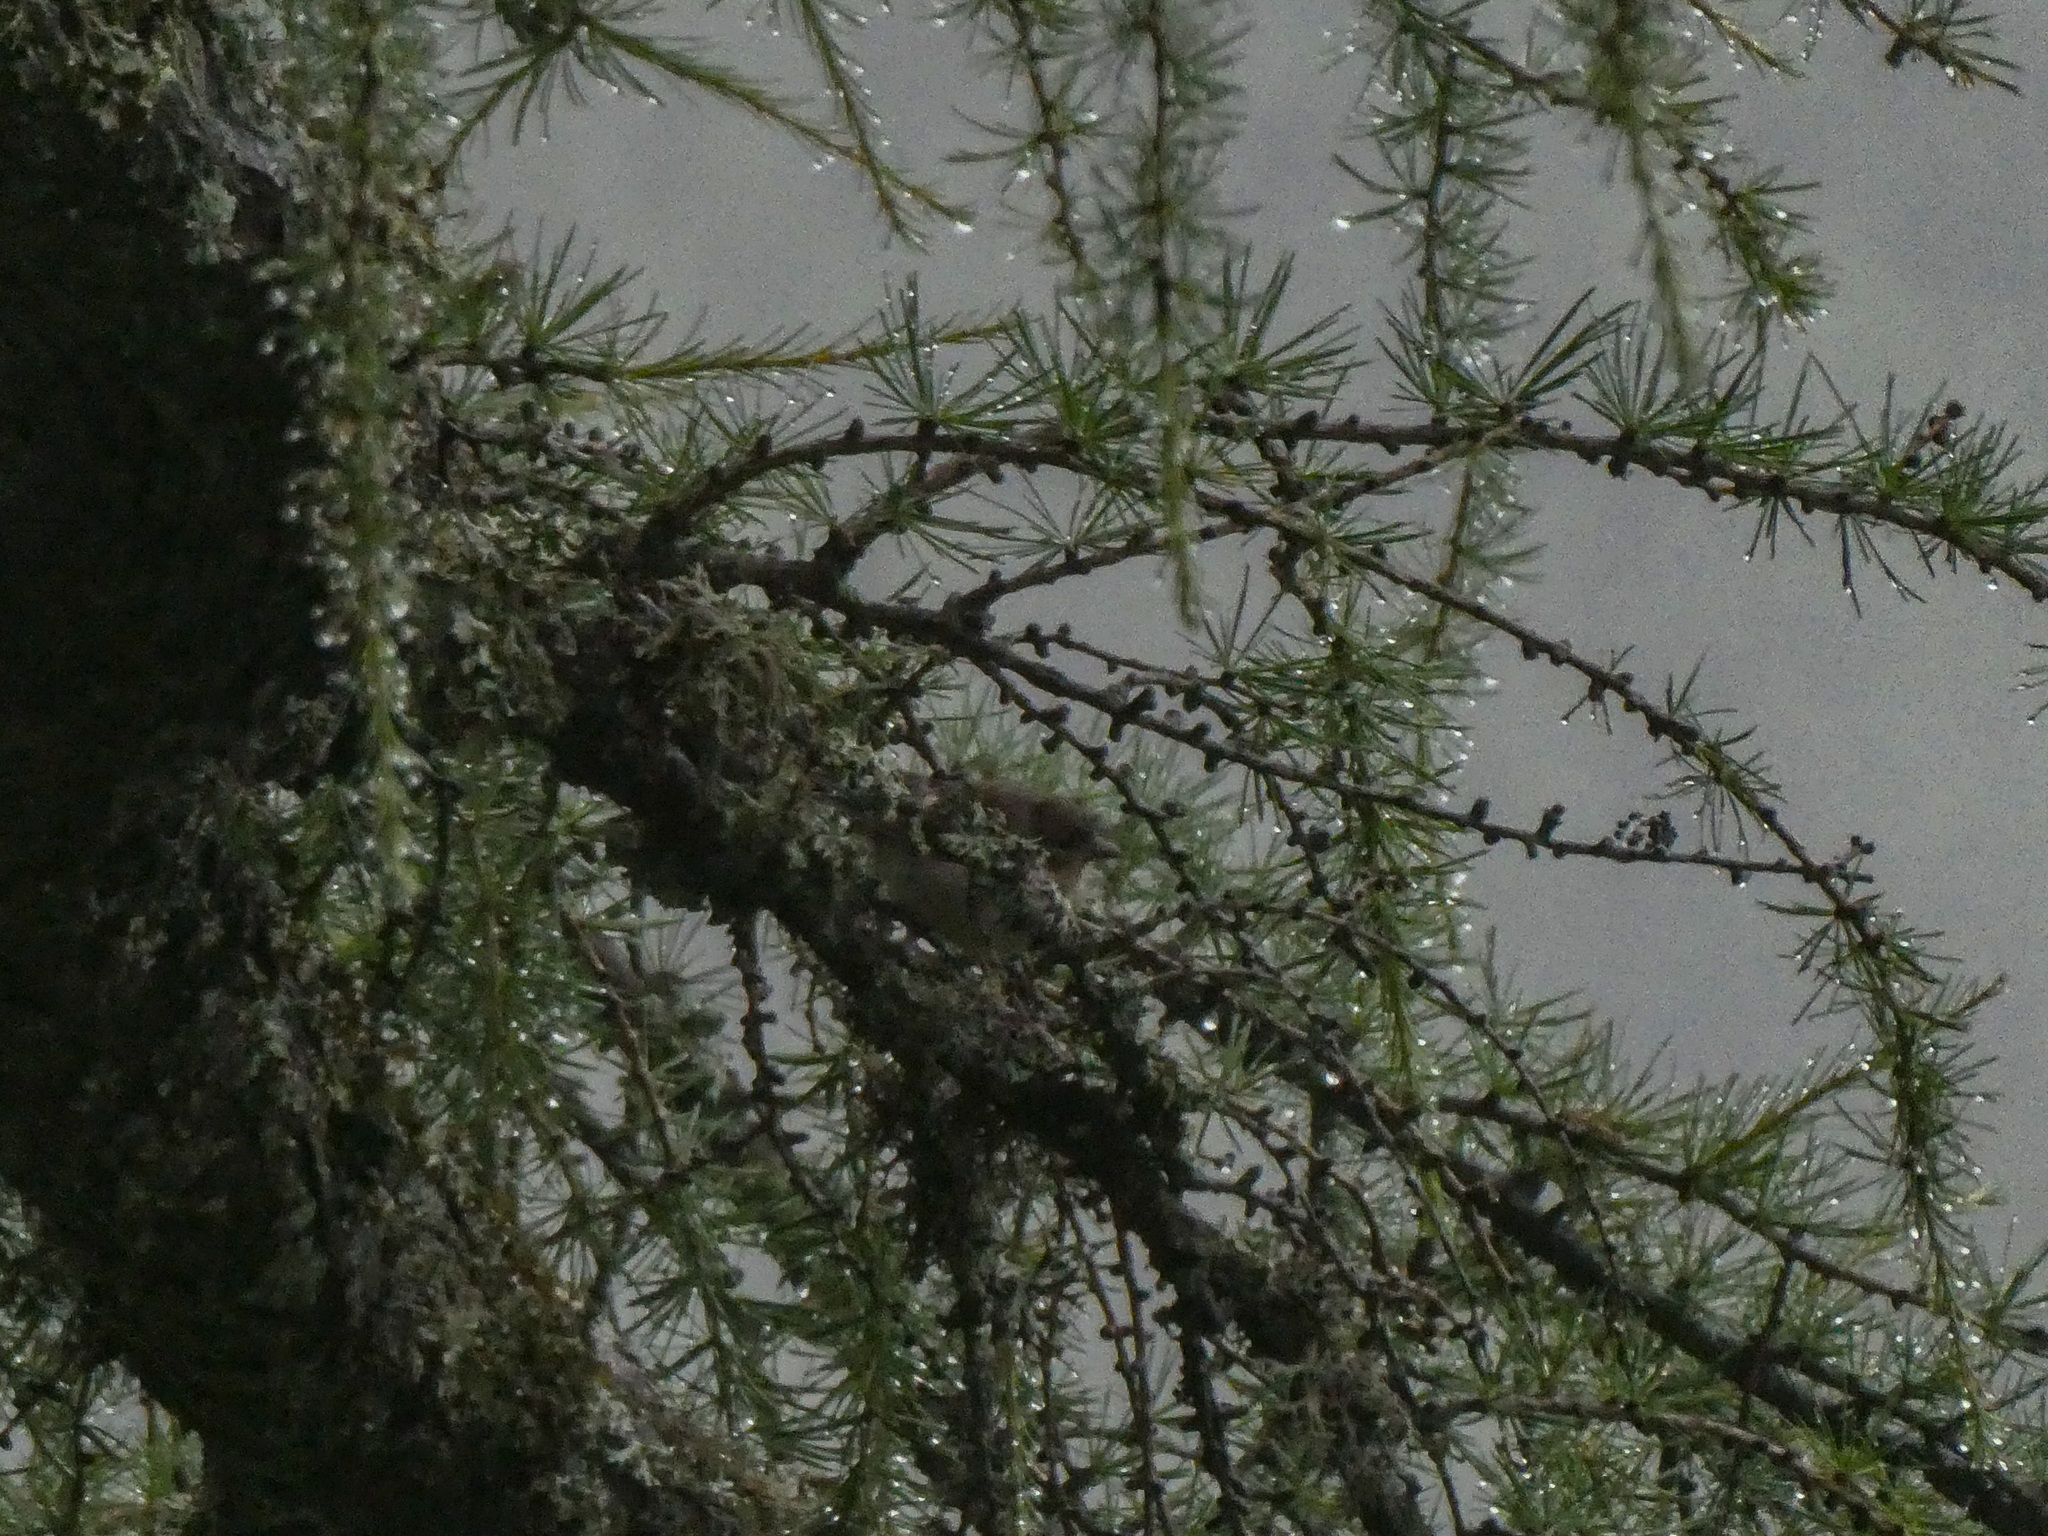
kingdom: Animalia
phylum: Chordata
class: Aves
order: Passeriformes
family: Fringillidae
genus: Fringilla
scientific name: Fringilla coelebs
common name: Common chaffinch
